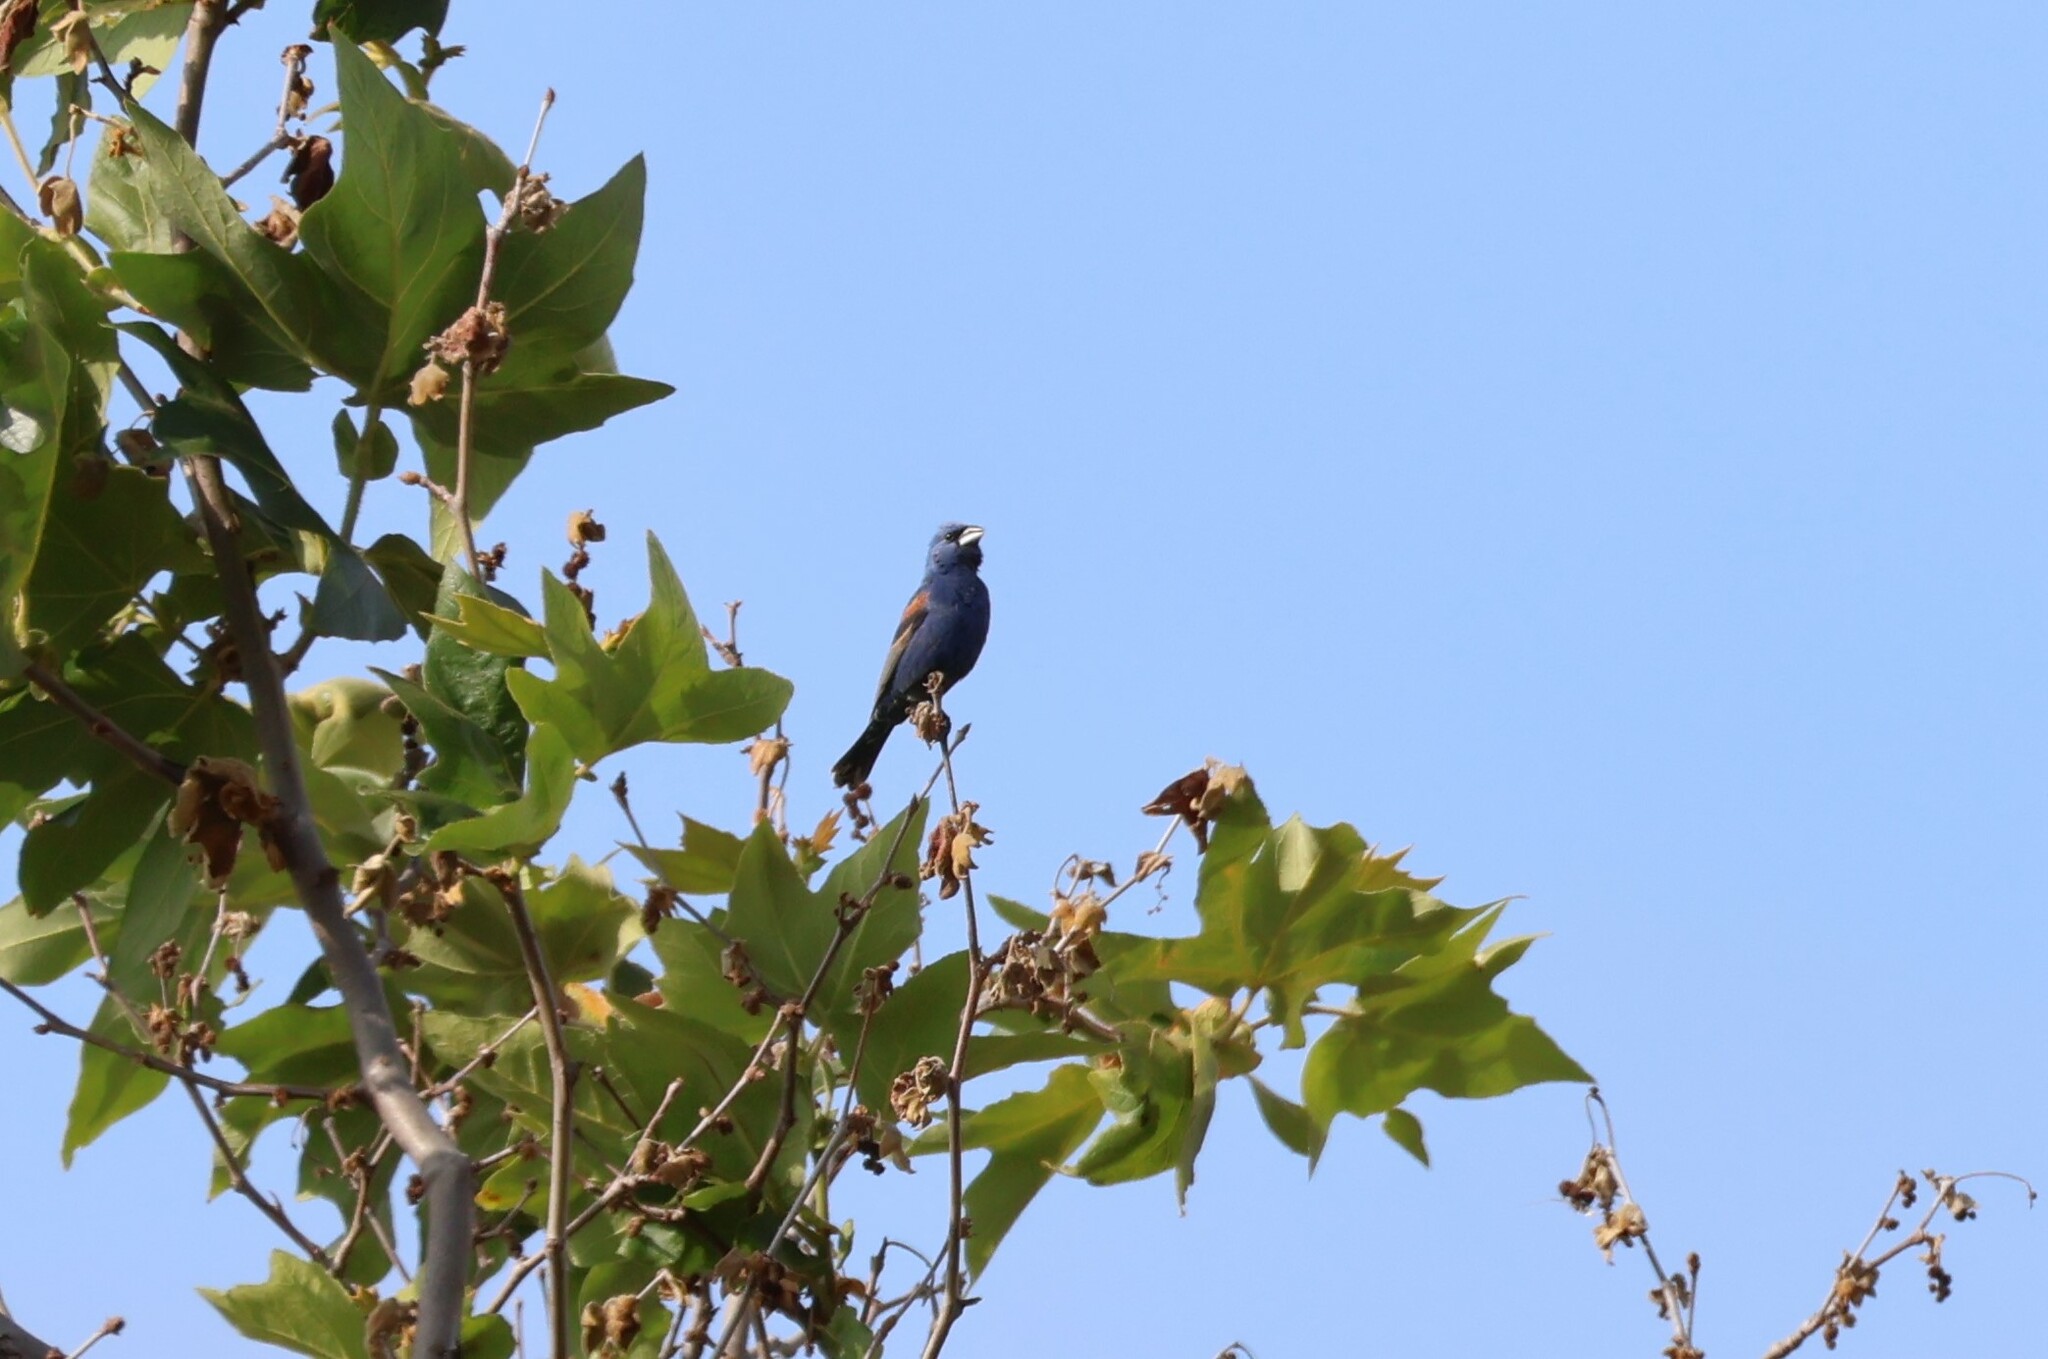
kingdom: Animalia
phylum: Chordata
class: Aves
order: Passeriformes
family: Cardinalidae
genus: Passerina
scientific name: Passerina caerulea
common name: Blue grosbeak
